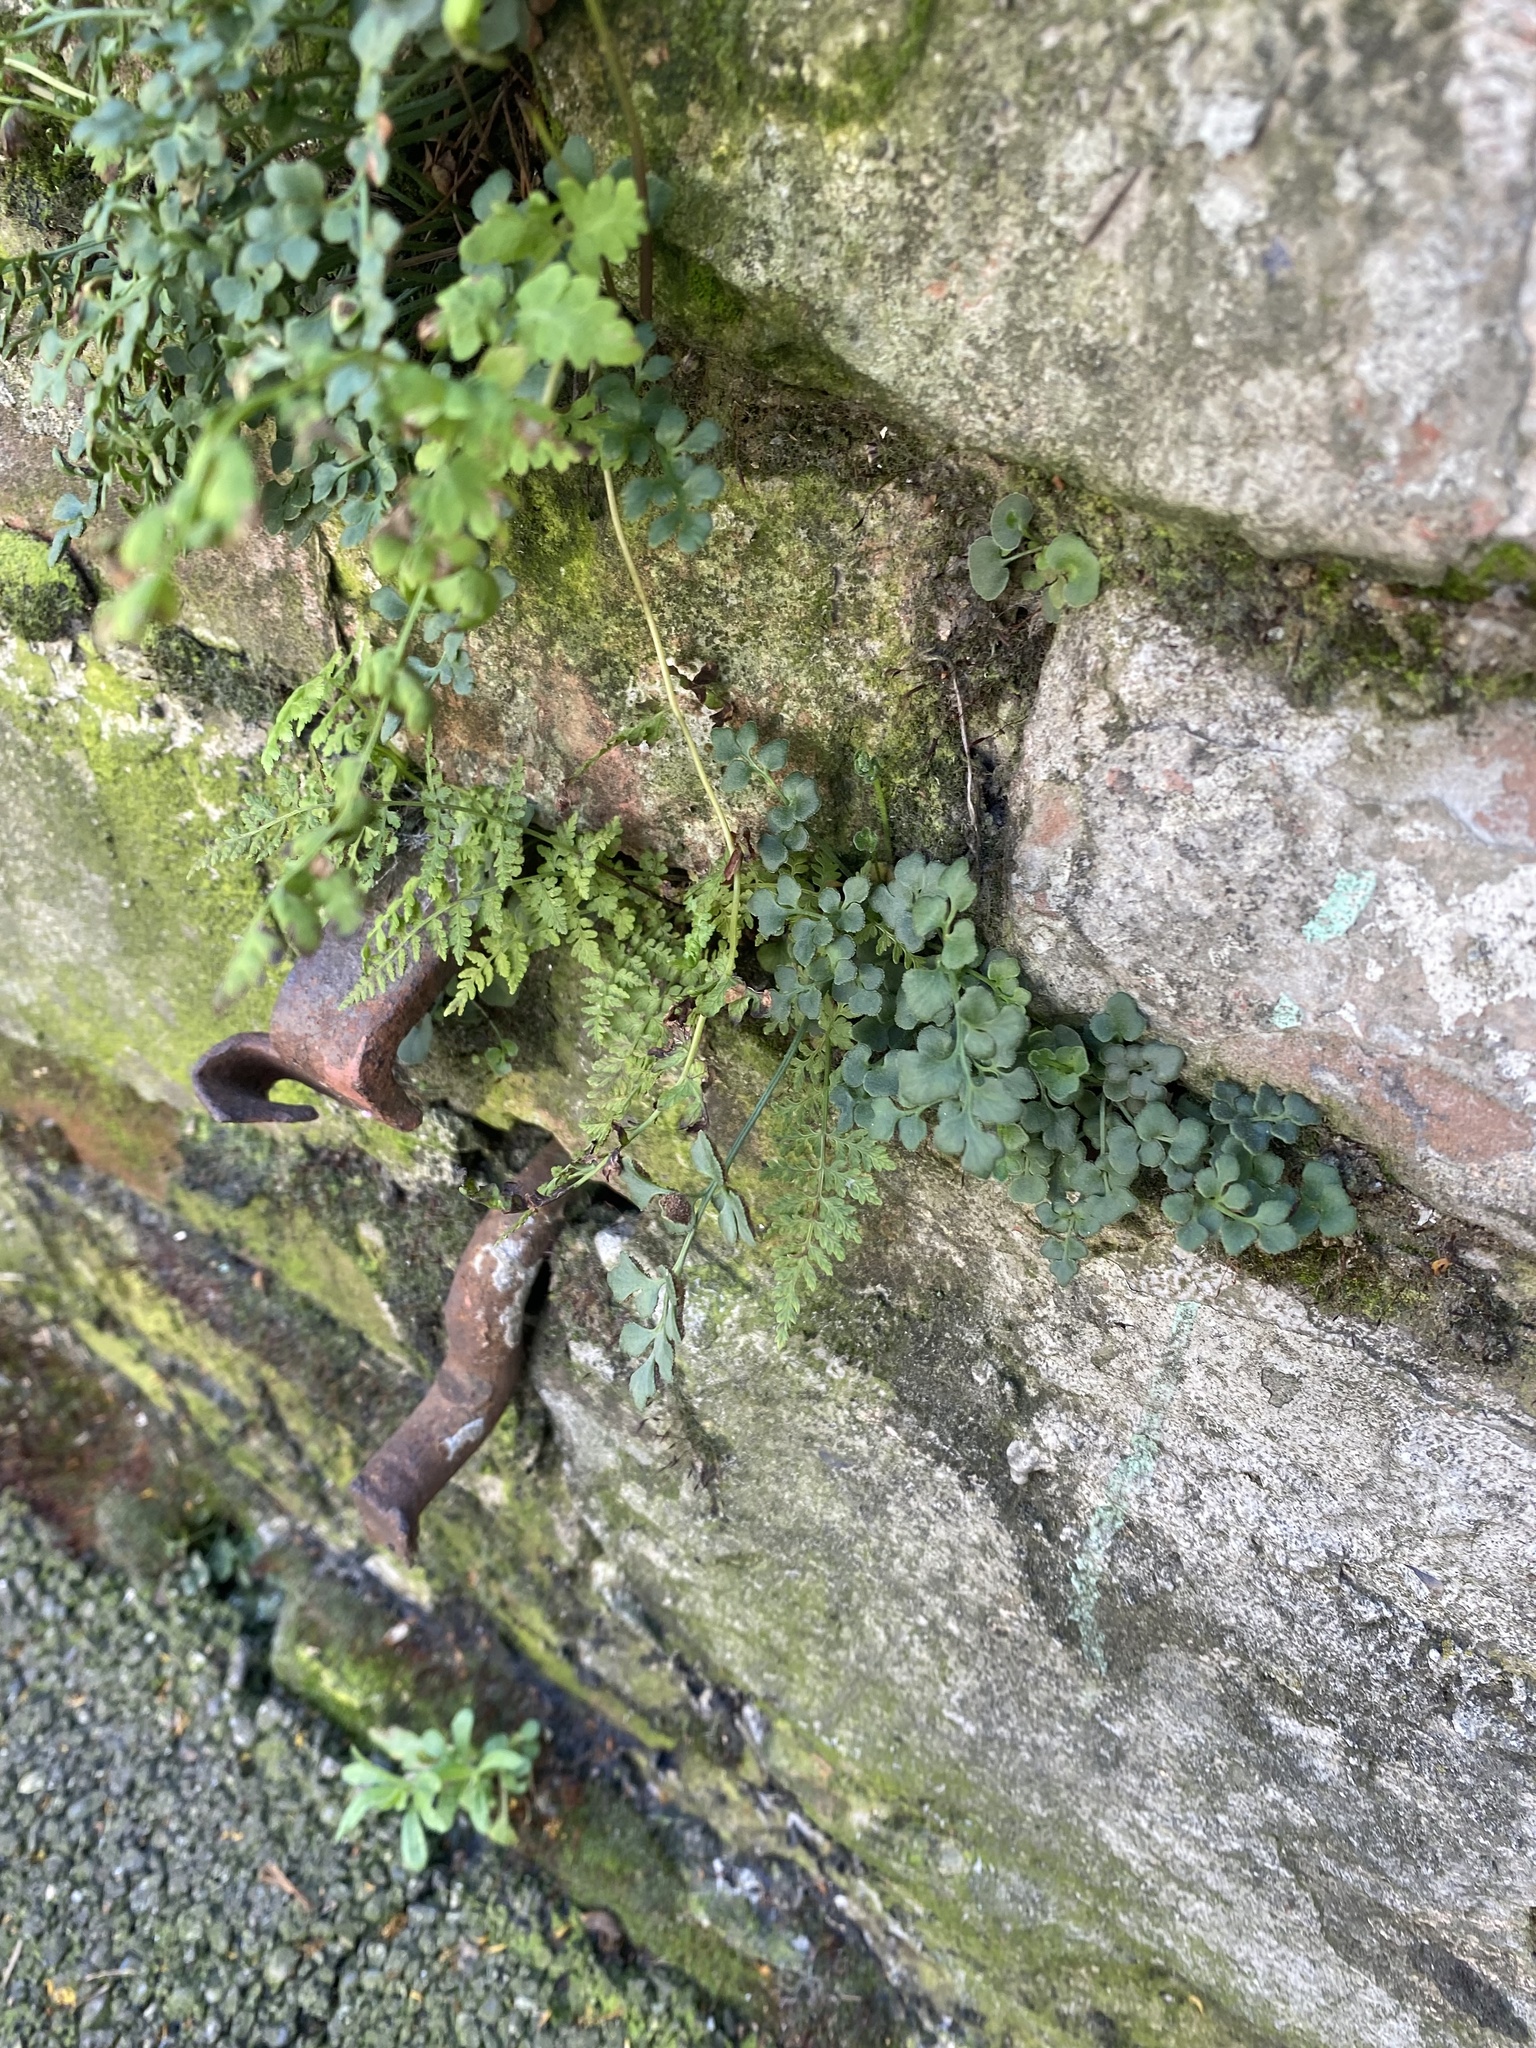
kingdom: Plantae
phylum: Tracheophyta
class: Polypodiopsida
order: Polypodiales
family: Aspleniaceae
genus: Asplenium
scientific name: Asplenium ruta-muraria
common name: Wall-rue
